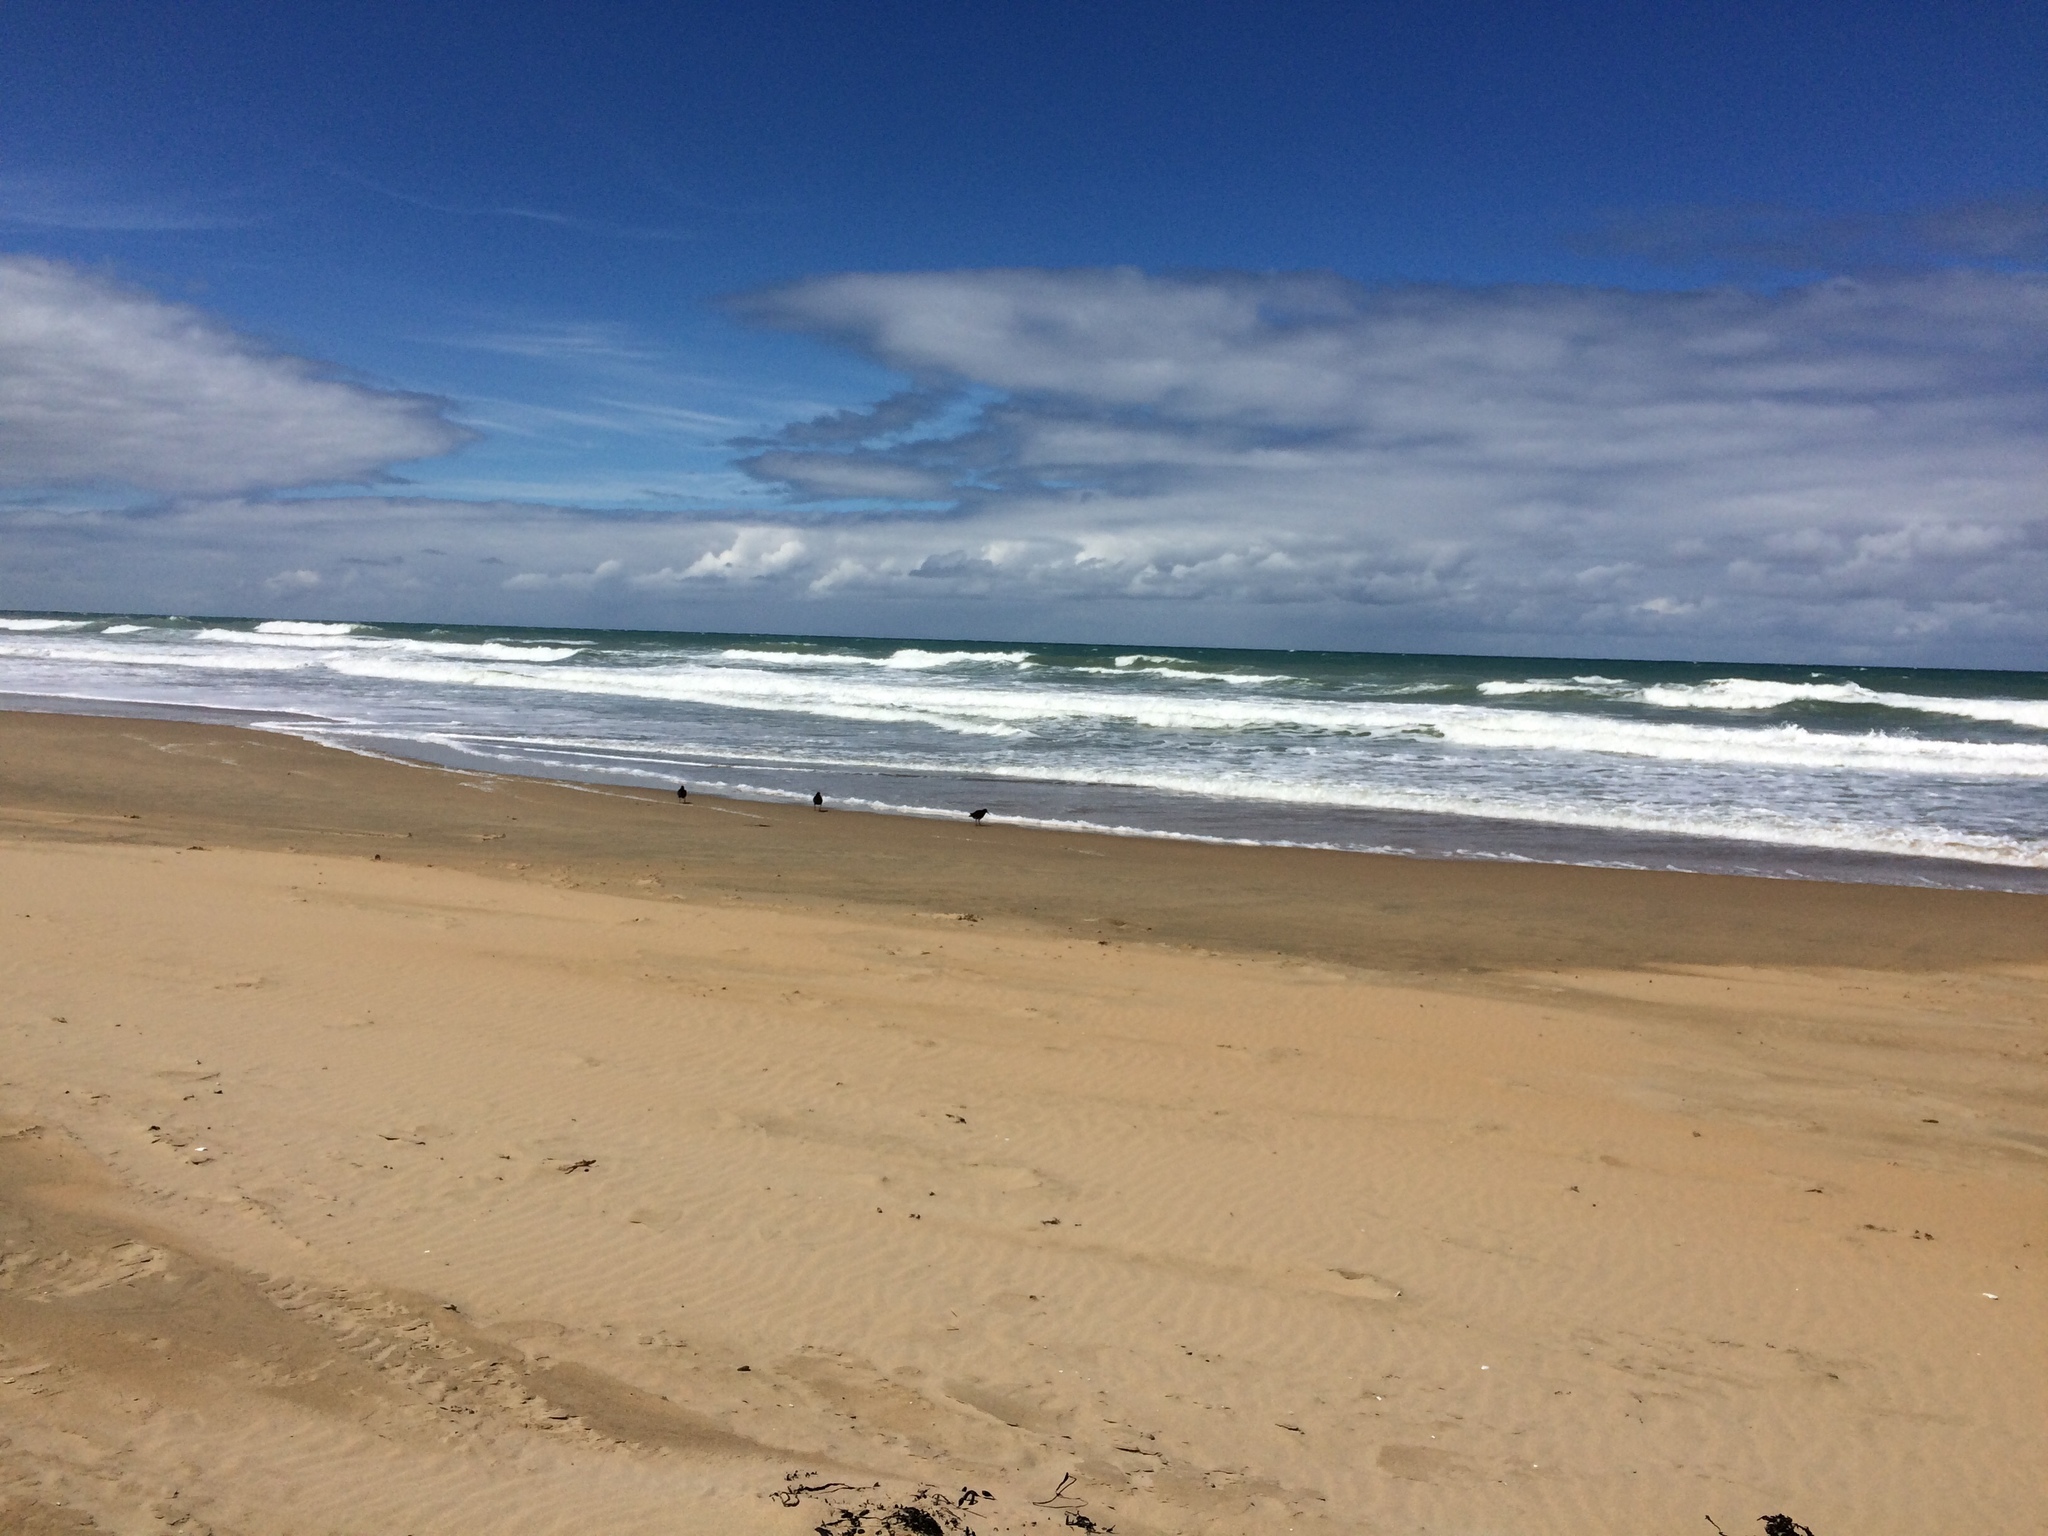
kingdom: Animalia
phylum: Chordata
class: Aves
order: Charadriiformes
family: Haematopodidae
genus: Haematopus
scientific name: Haematopus unicolor
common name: Variable oystercatcher
